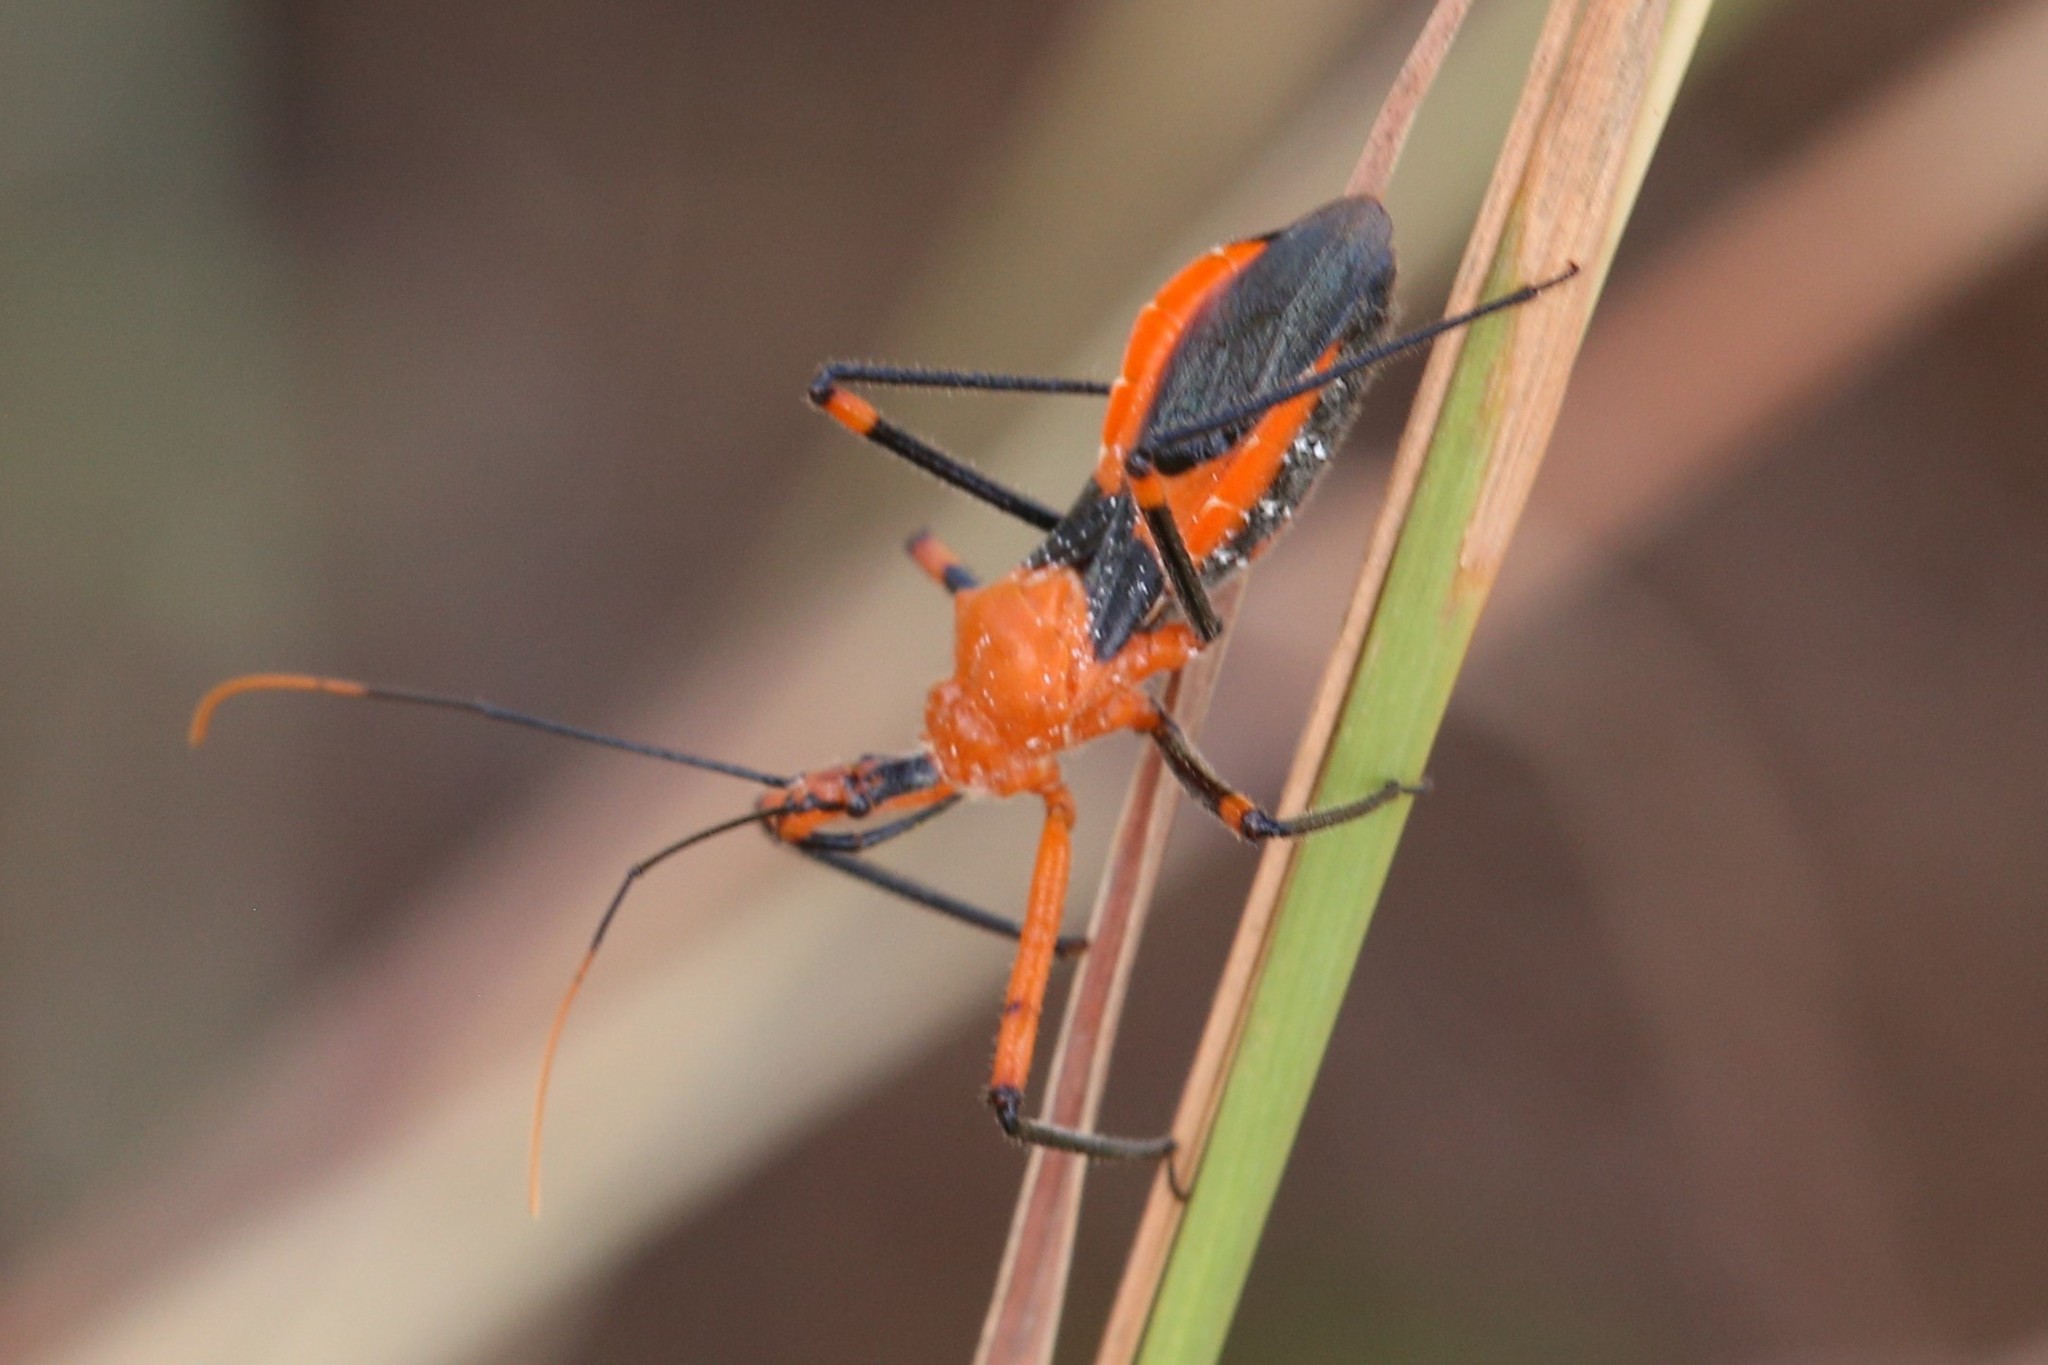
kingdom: Animalia
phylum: Arthropoda
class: Insecta
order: Hemiptera
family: Reduviidae
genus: Poecilobdallus
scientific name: Poecilobdallus formosus
